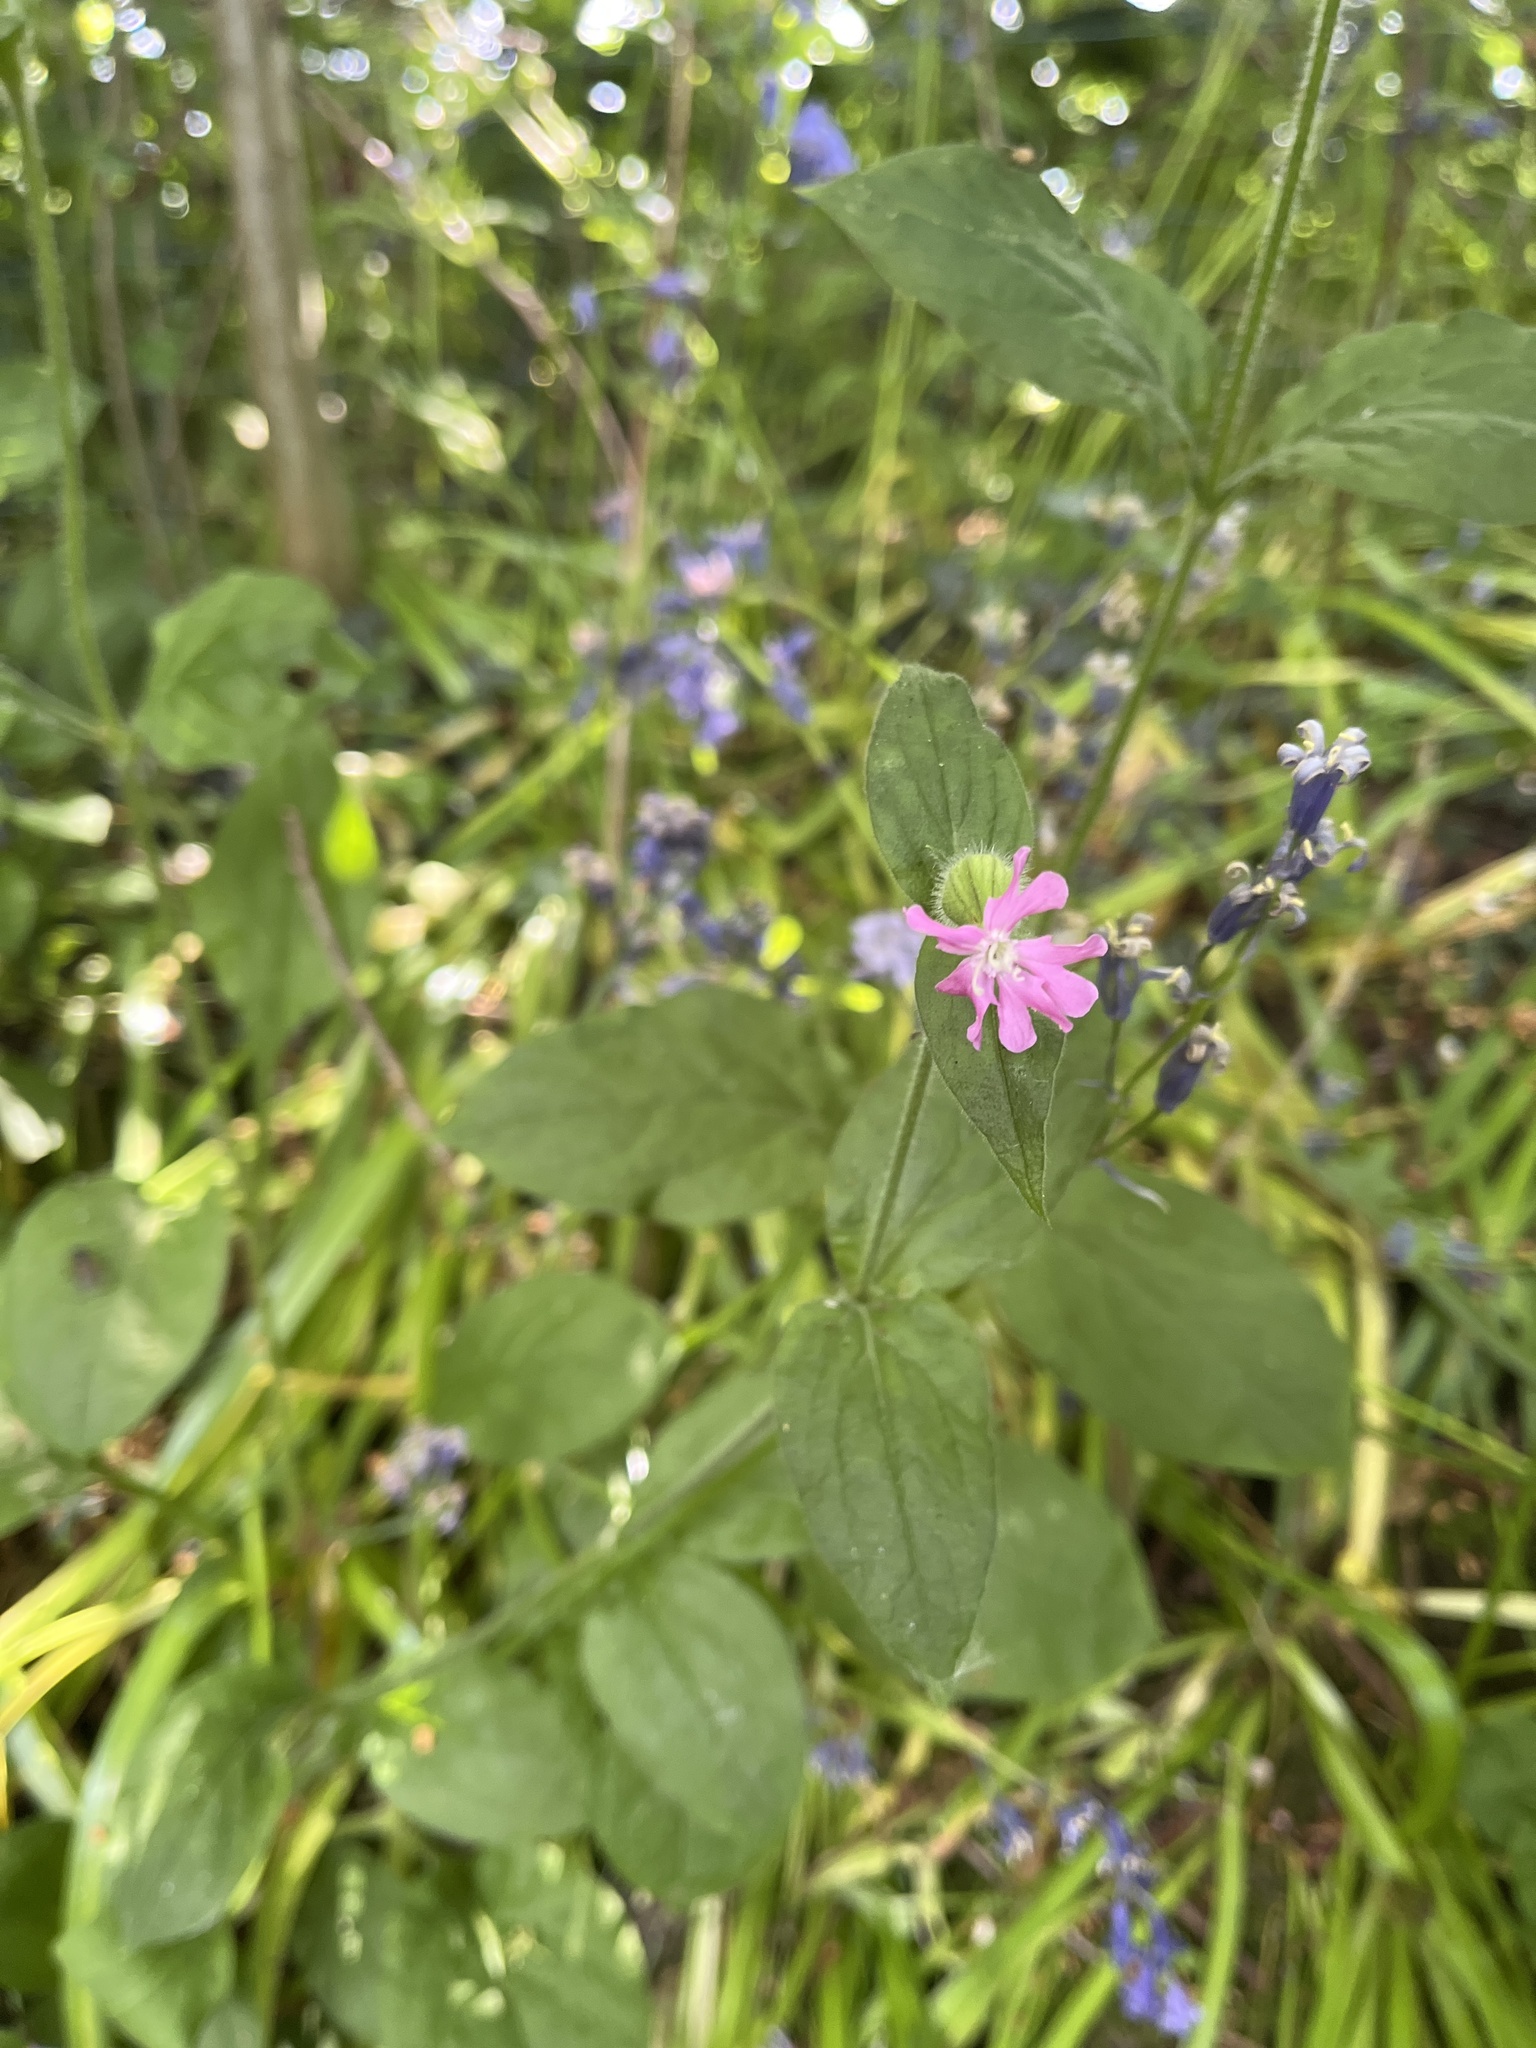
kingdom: Plantae
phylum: Tracheophyta
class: Magnoliopsida
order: Caryophyllales
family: Caryophyllaceae
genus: Silene
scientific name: Silene dioica
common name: Red campion
